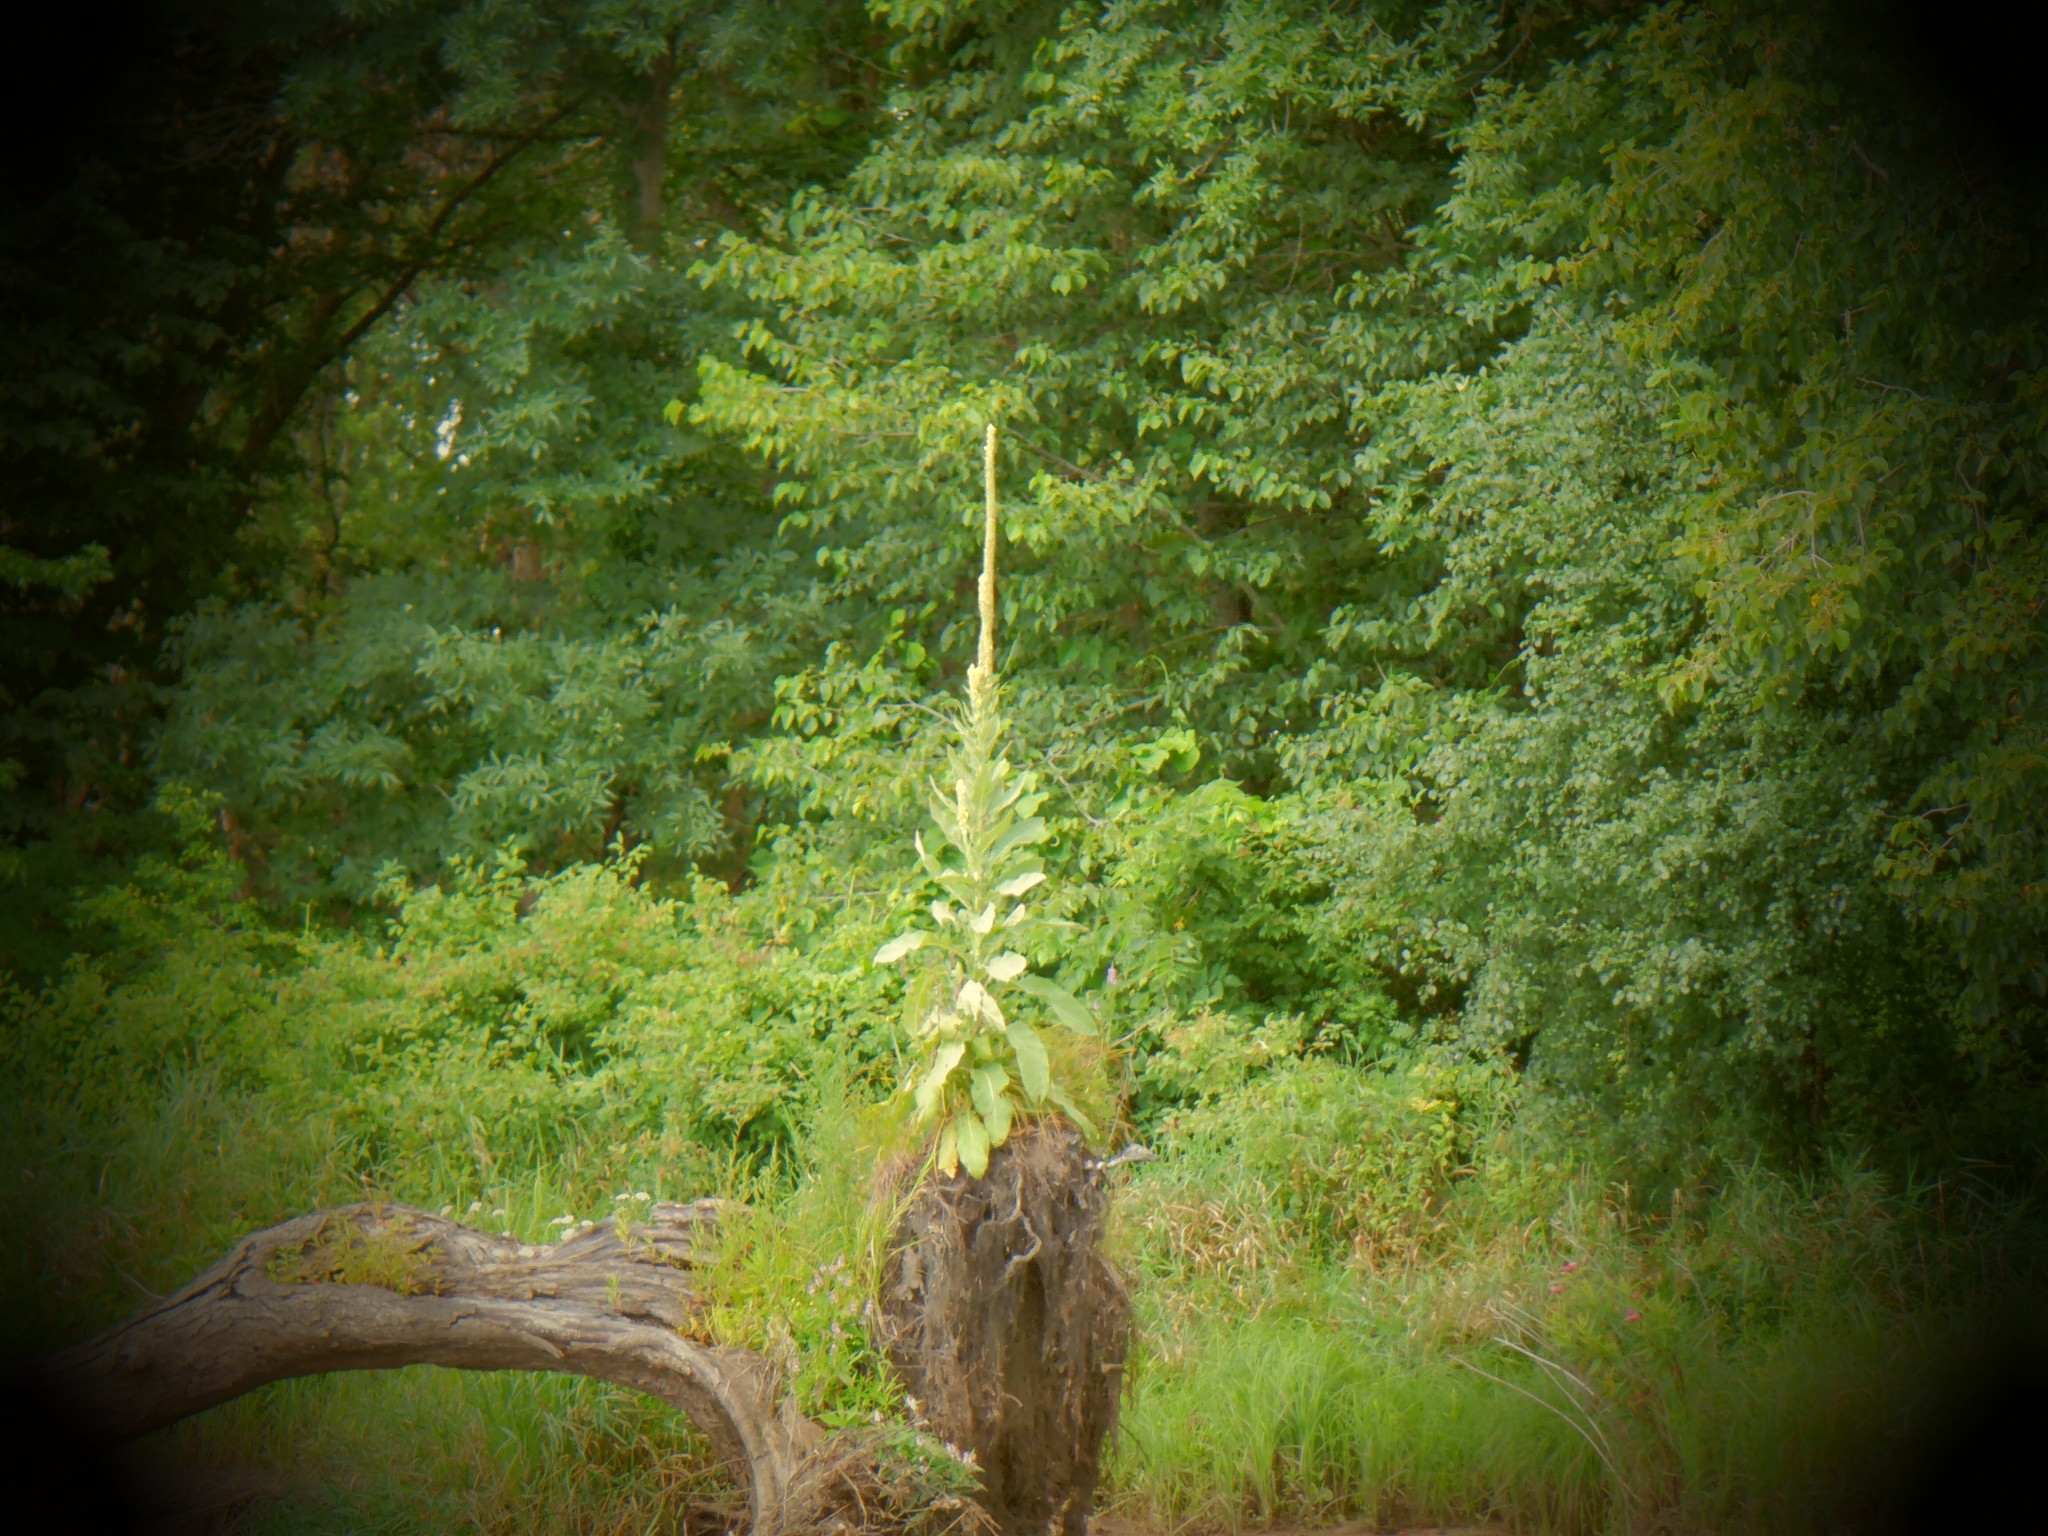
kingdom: Plantae
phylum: Tracheophyta
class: Magnoliopsida
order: Lamiales
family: Scrophulariaceae
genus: Verbascum
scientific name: Verbascum thapsus
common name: Common mullein
